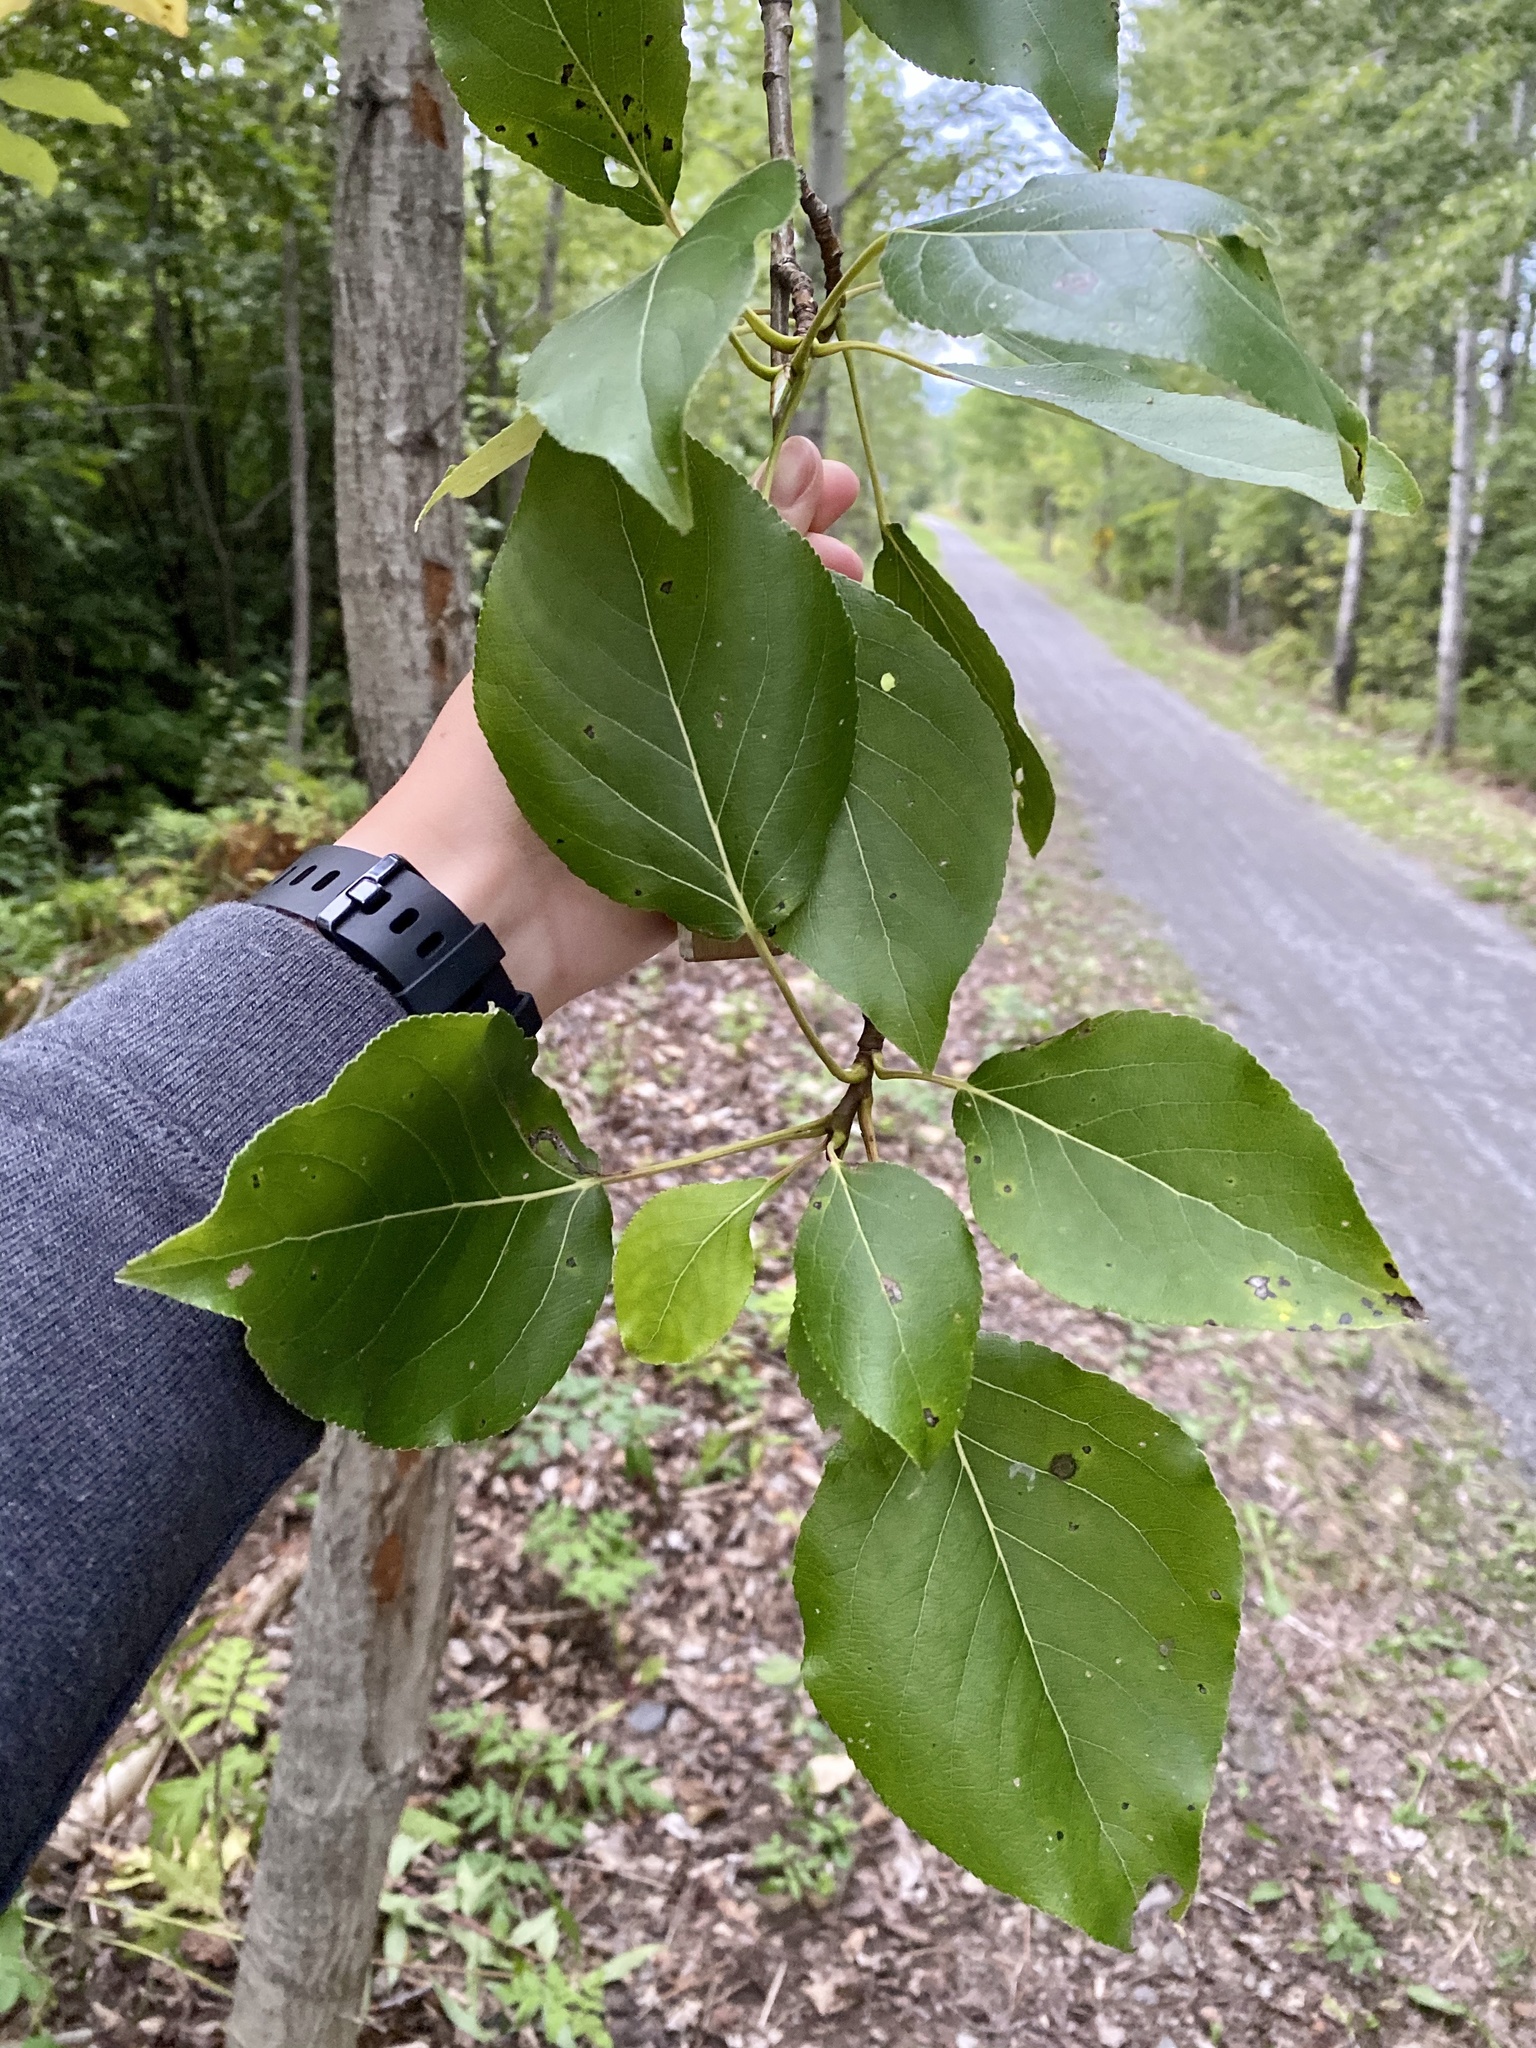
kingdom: Plantae
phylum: Tracheophyta
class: Magnoliopsida
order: Malpighiales
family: Salicaceae
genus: Populus
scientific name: Populus balsamifera
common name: Balsam poplar
